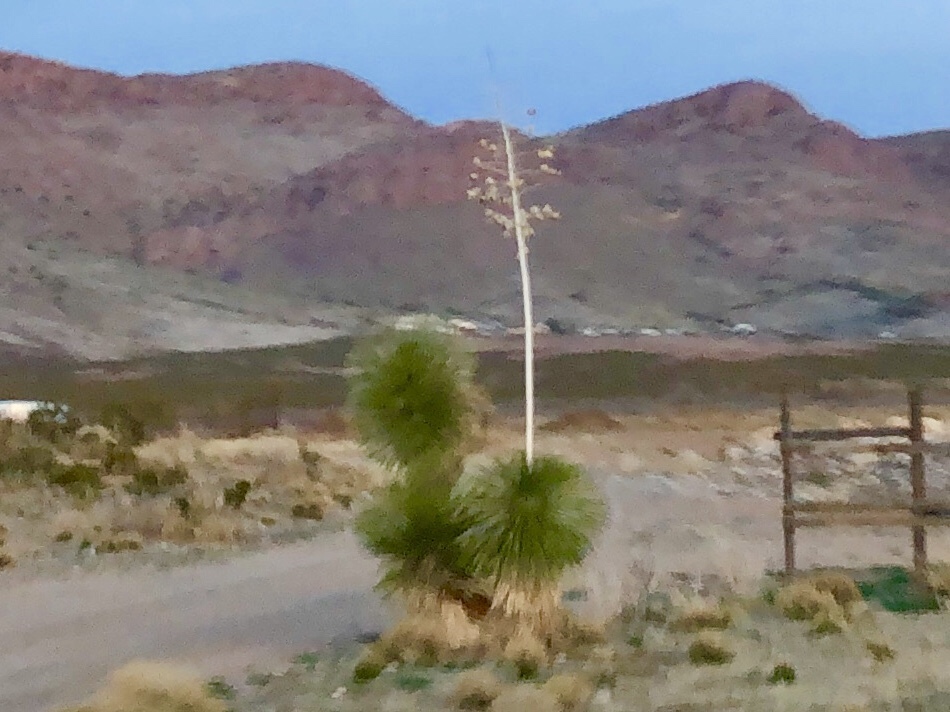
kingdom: Plantae
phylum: Tracheophyta
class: Liliopsida
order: Asparagales
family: Asparagaceae
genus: Yucca
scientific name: Yucca elata
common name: Palmella
